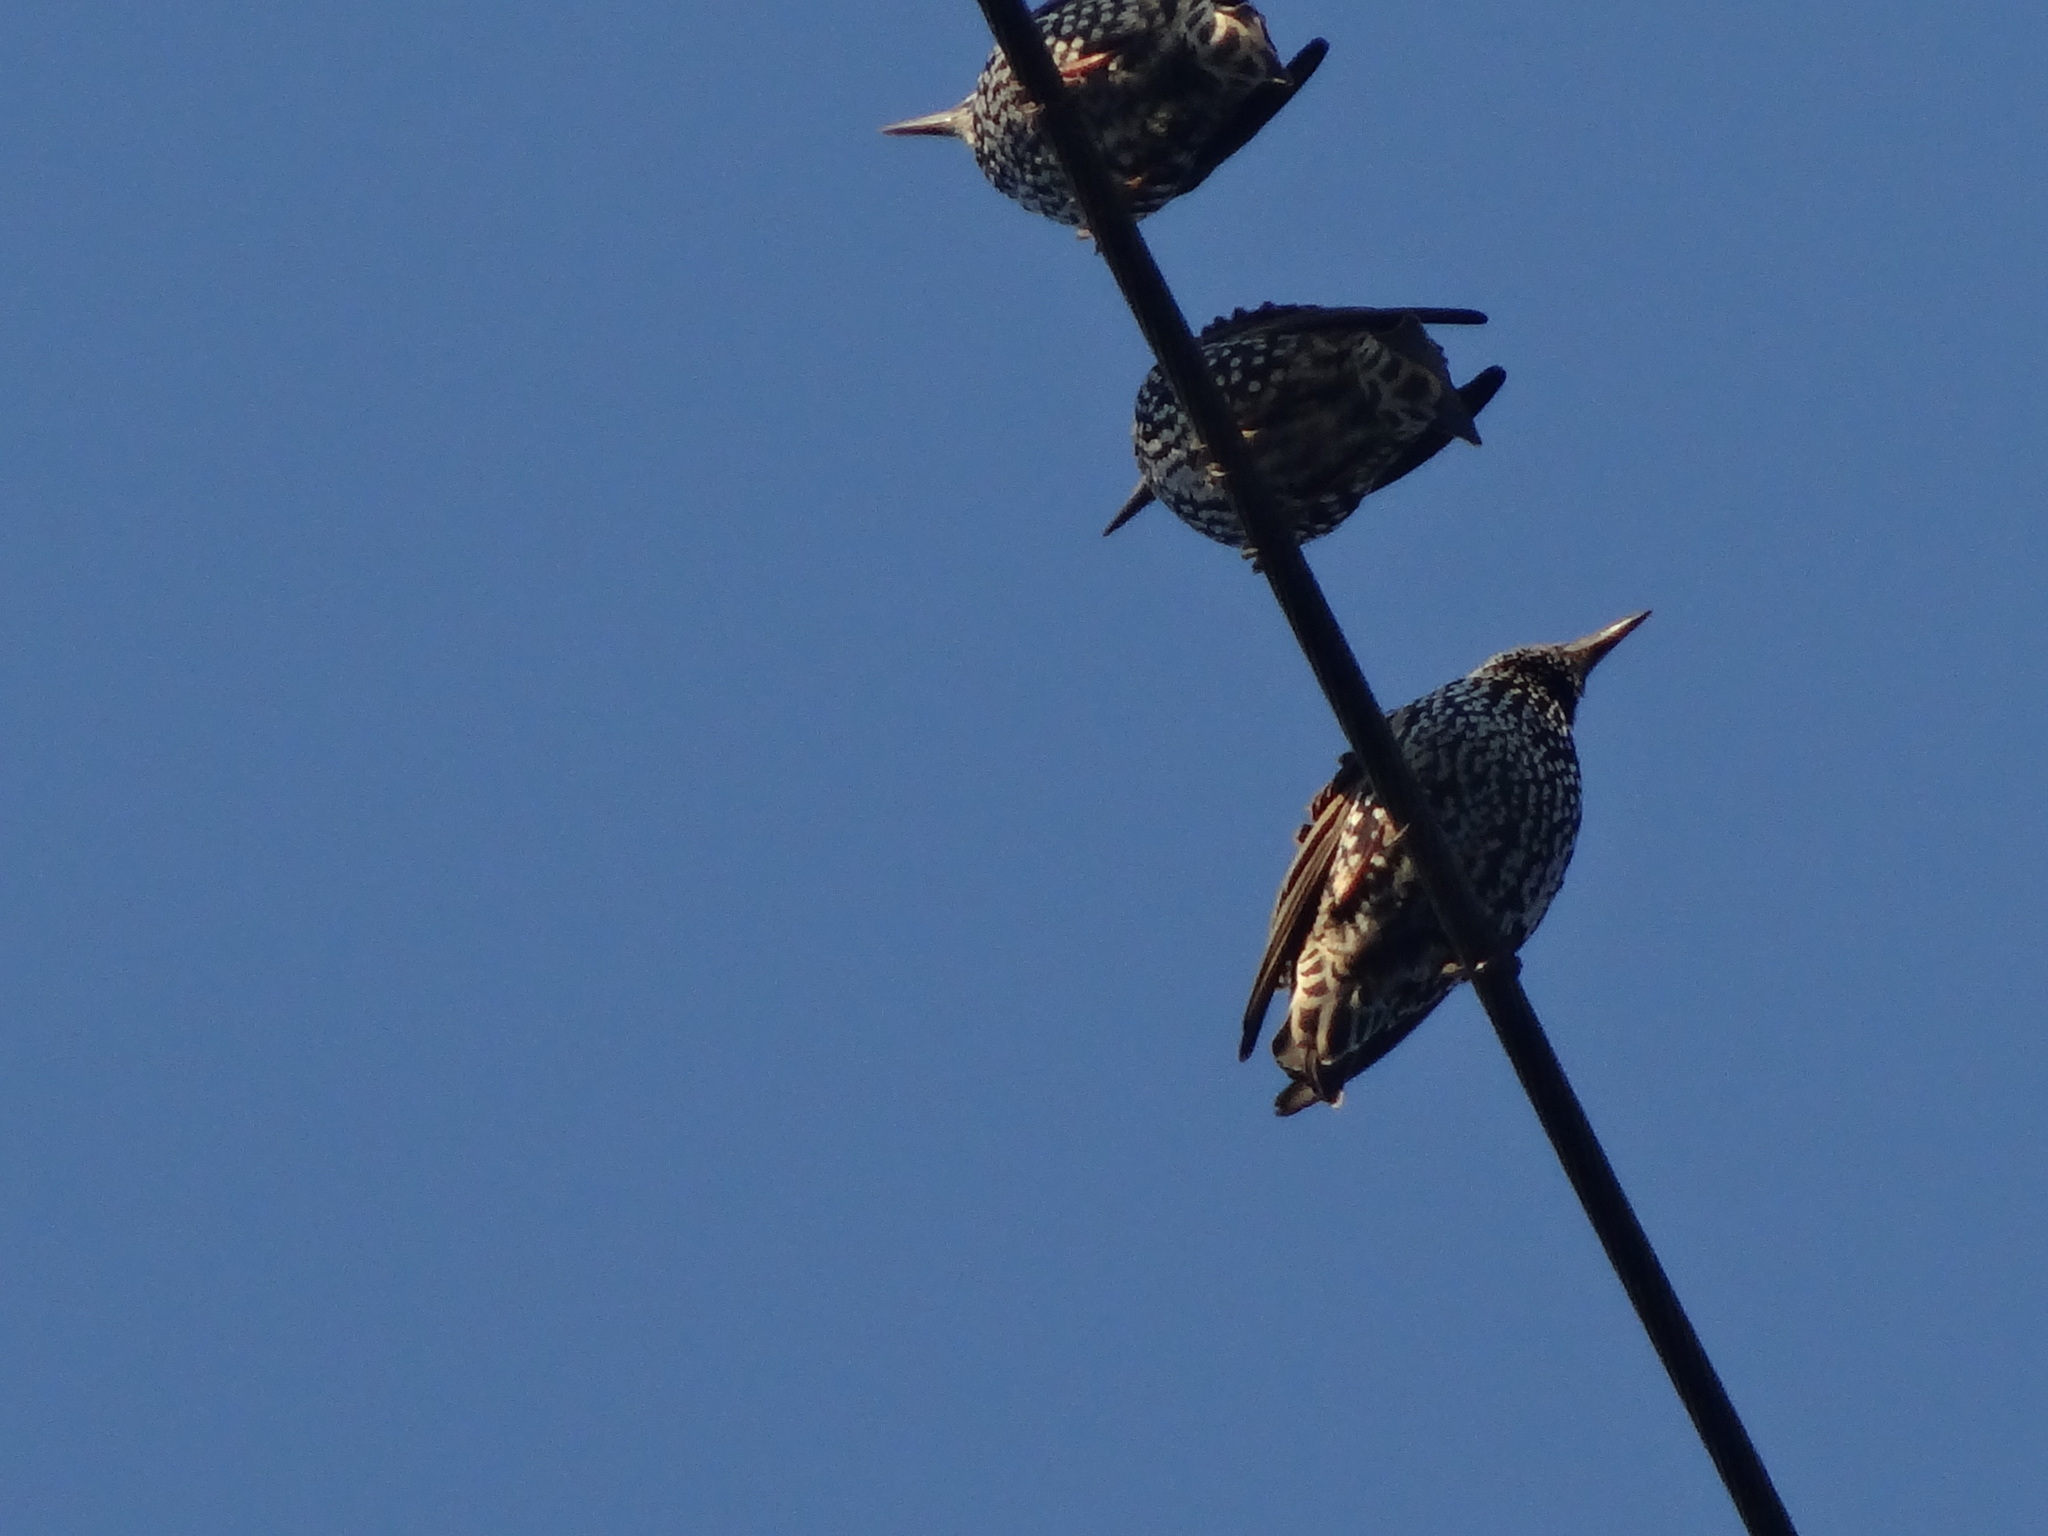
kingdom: Animalia
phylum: Chordata
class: Aves
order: Passeriformes
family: Sturnidae
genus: Sturnus
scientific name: Sturnus vulgaris
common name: Common starling
